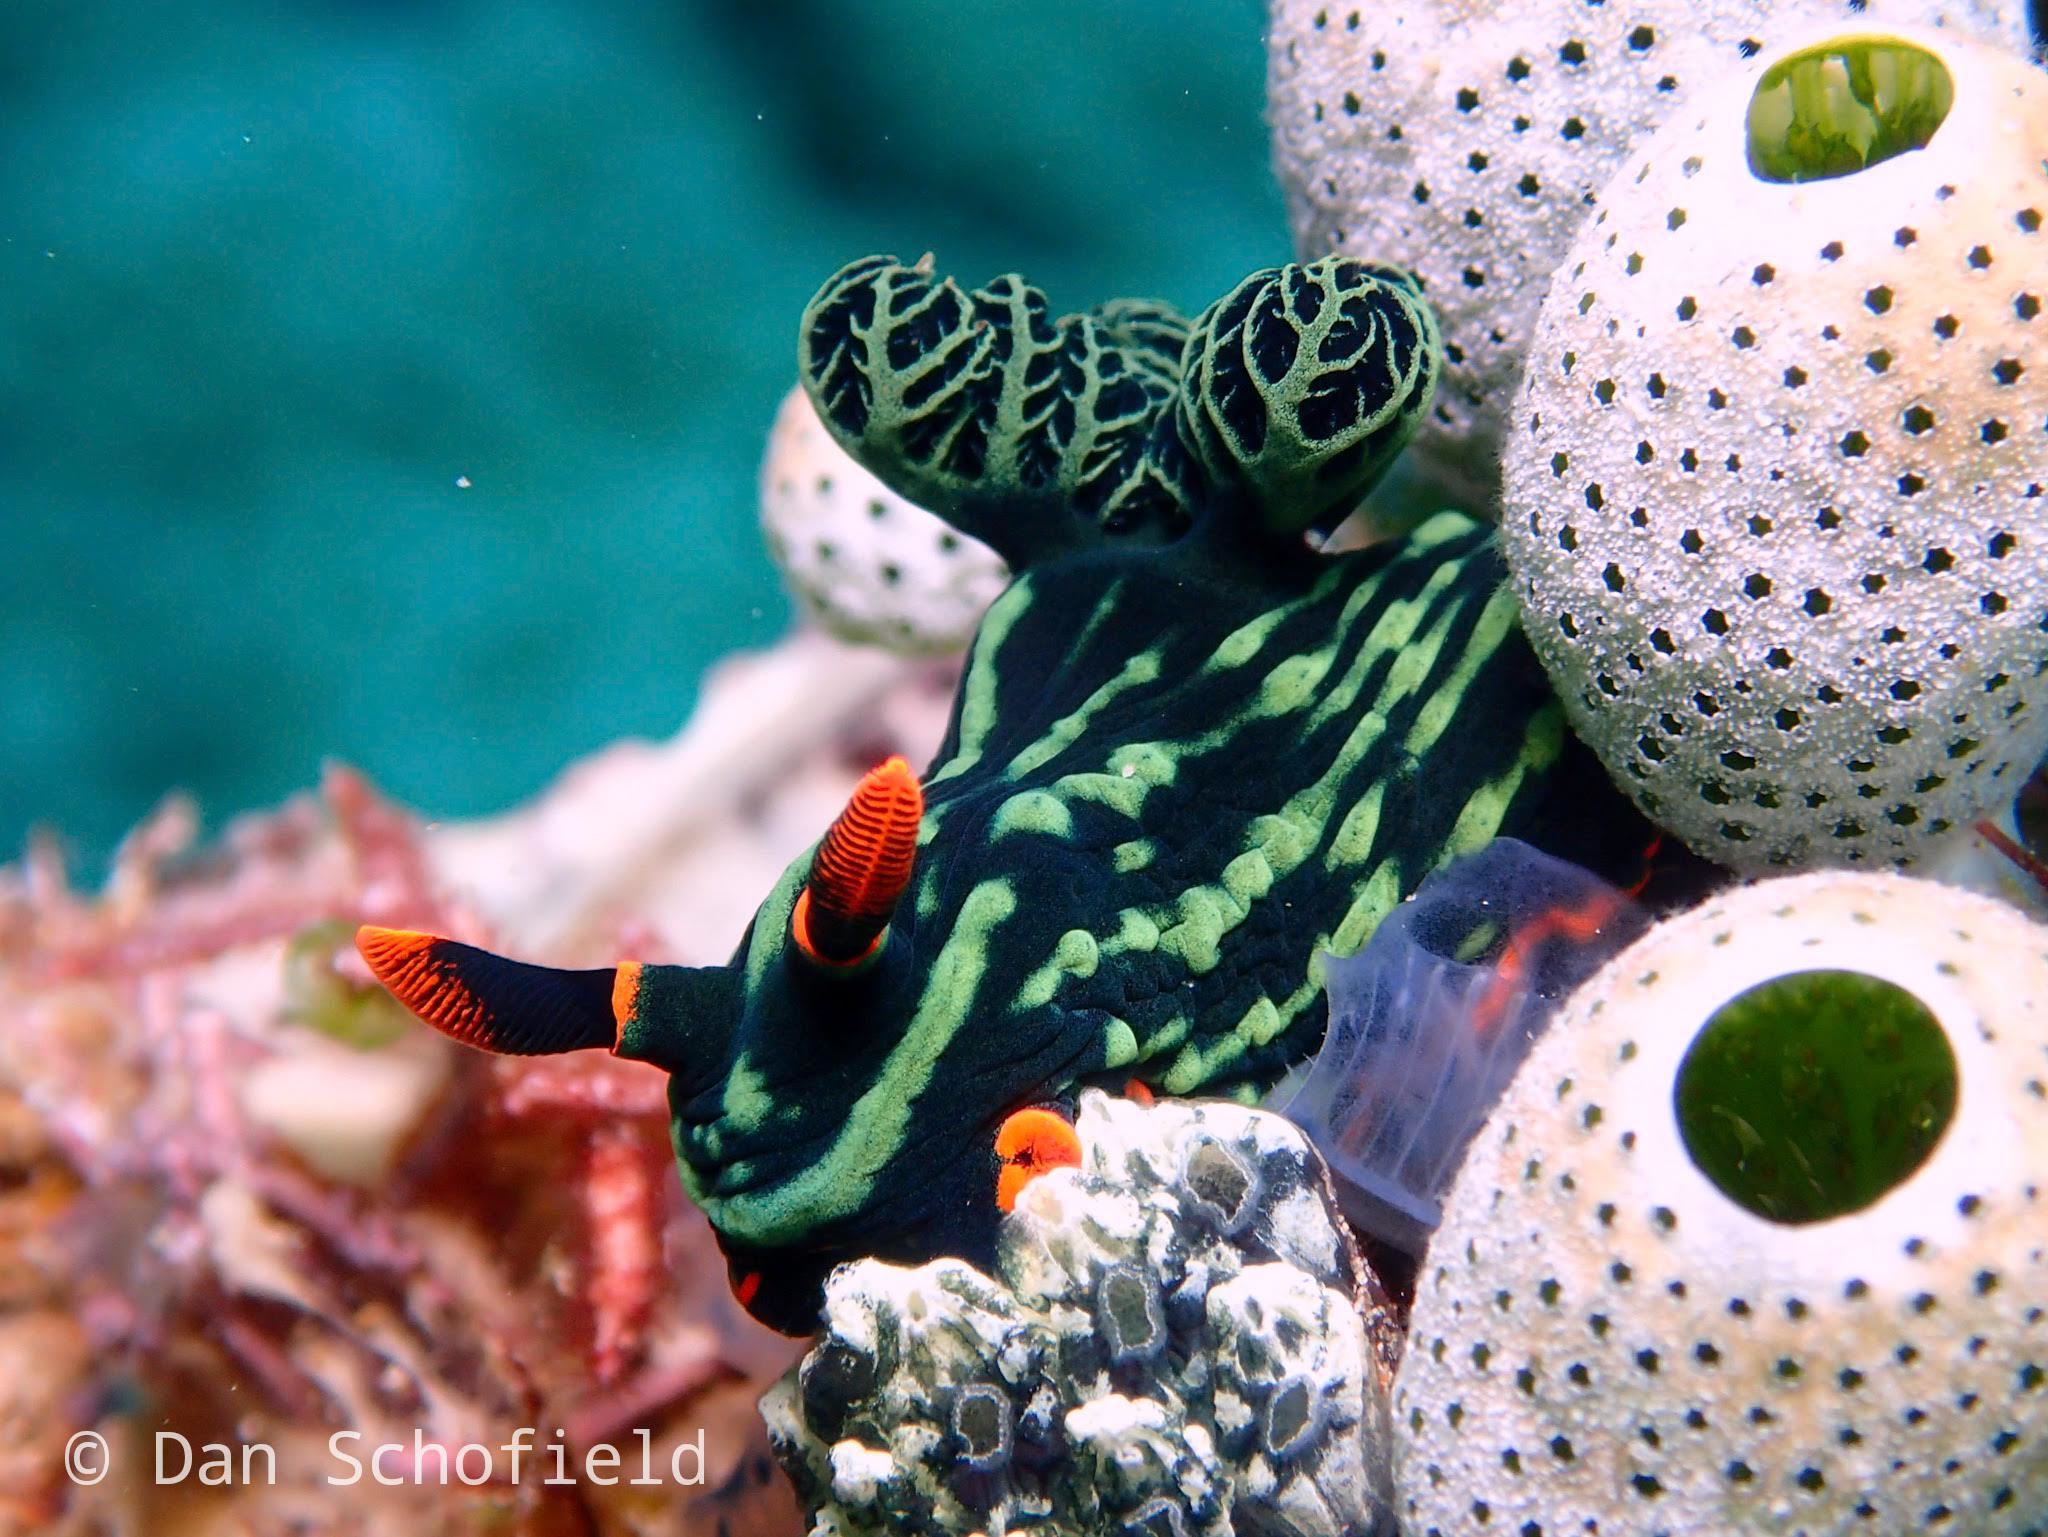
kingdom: Animalia
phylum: Mollusca
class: Gastropoda
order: Nudibranchia
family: Polyceridae
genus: Nembrotha
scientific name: Nembrotha kubaryana
